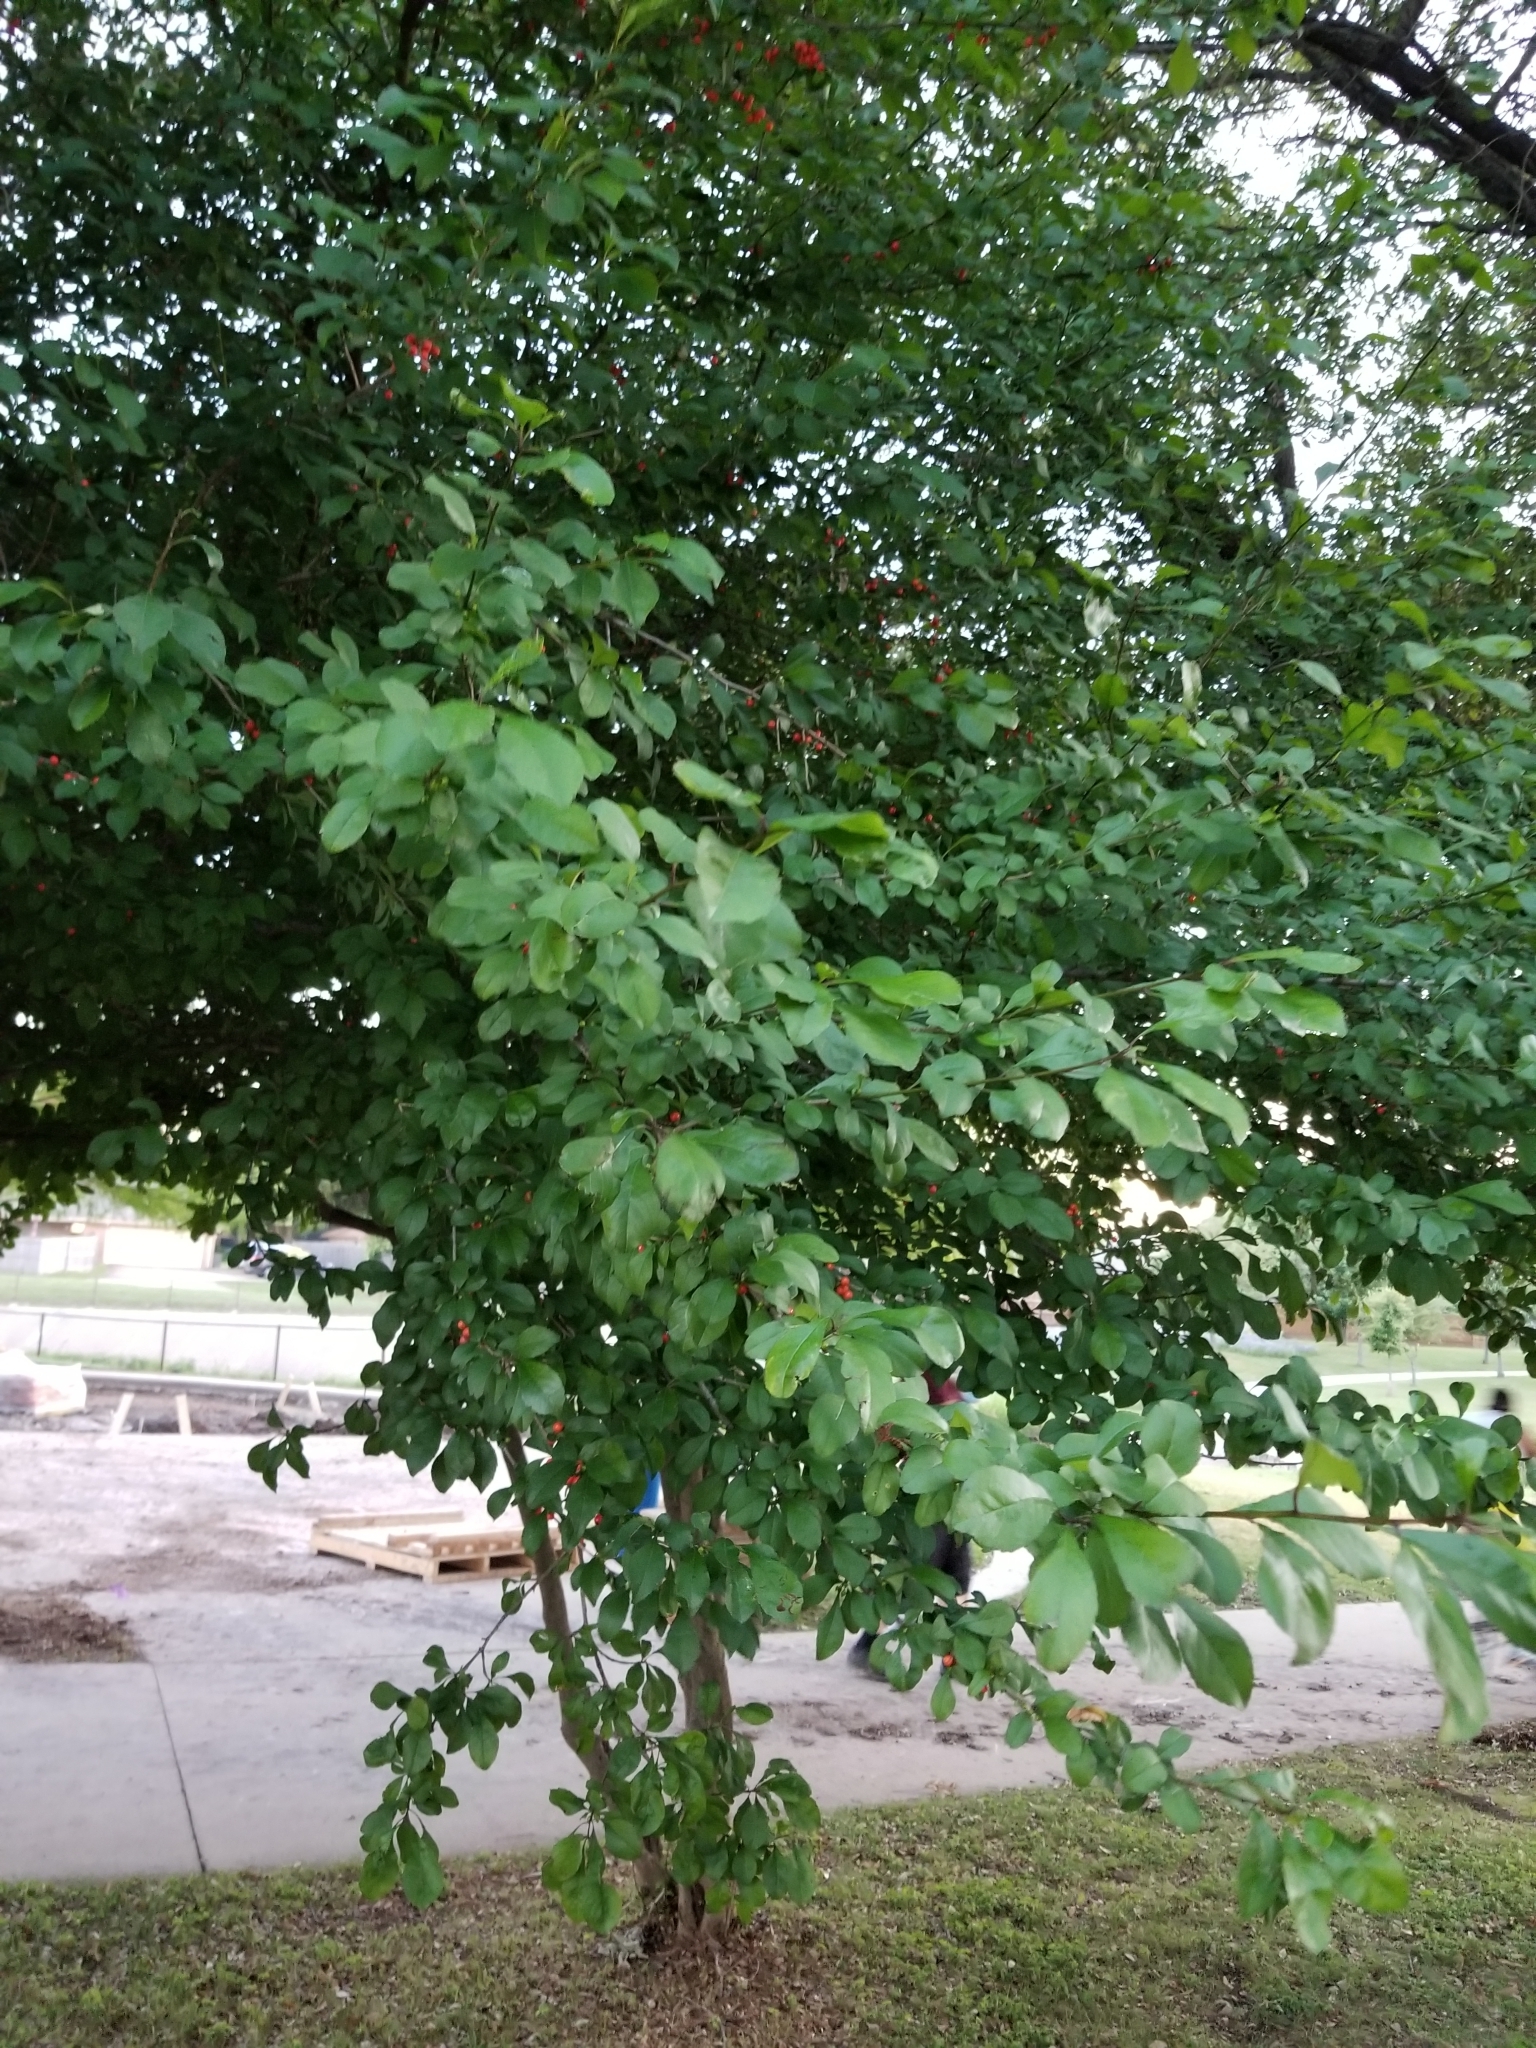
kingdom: Plantae
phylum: Tracheophyta
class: Magnoliopsida
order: Aquifoliales
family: Aquifoliaceae
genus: Ilex
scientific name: Ilex decidua
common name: Possum-haw
